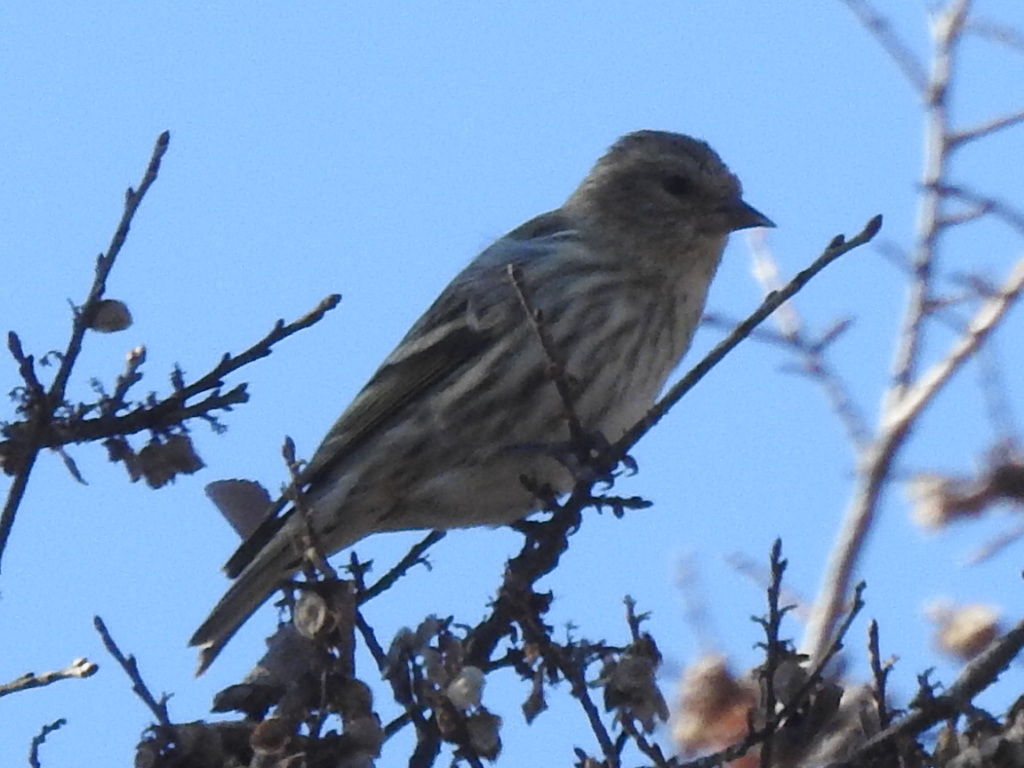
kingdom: Animalia
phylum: Chordata
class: Aves
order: Passeriformes
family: Fringillidae
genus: Spinus
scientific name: Spinus pinus
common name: Pine siskin
